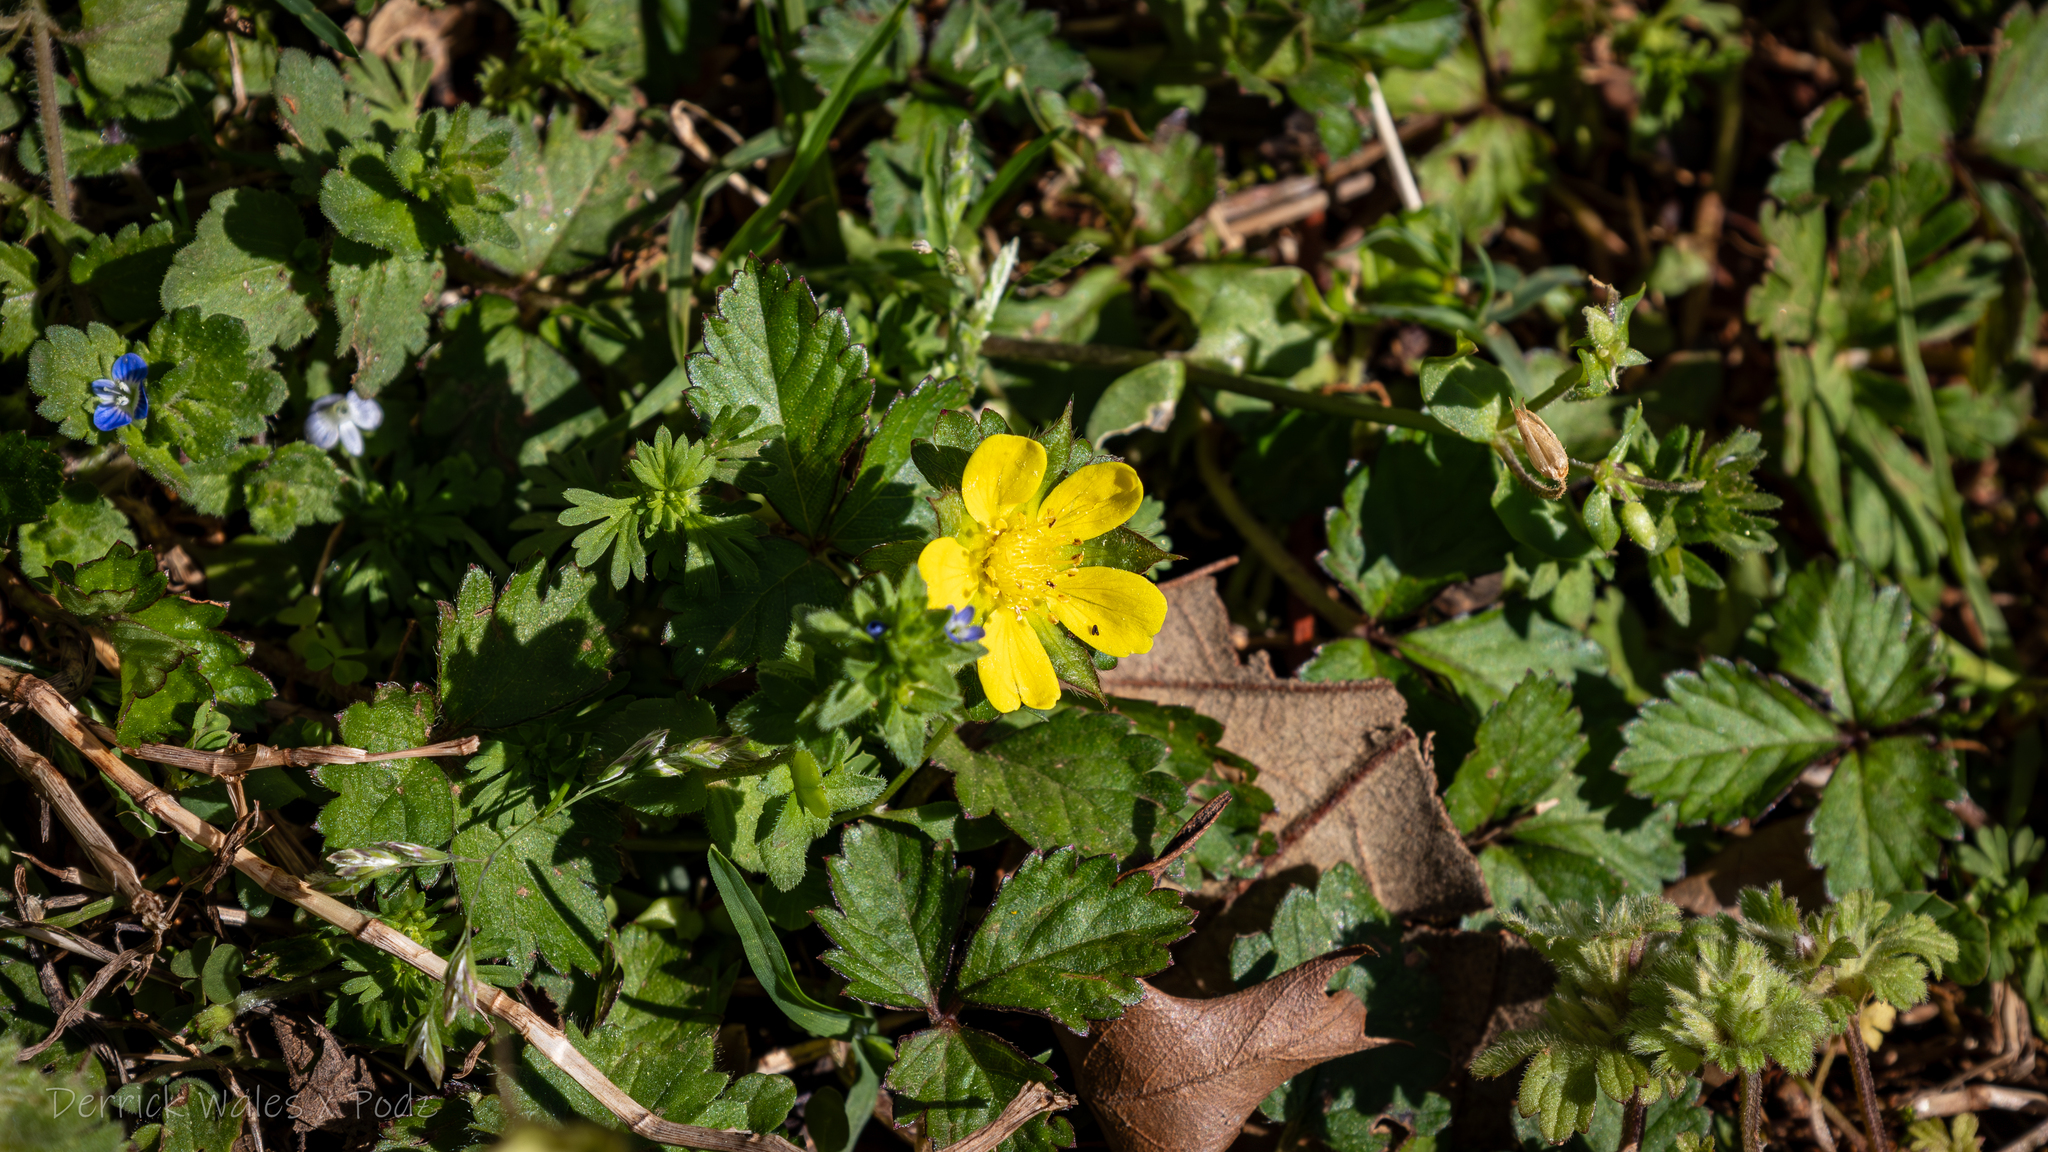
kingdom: Plantae
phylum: Tracheophyta
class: Magnoliopsida
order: Rosales
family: Rosaceae
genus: Potentilla
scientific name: Potentilla indica
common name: Yellow-flowered strawberry
